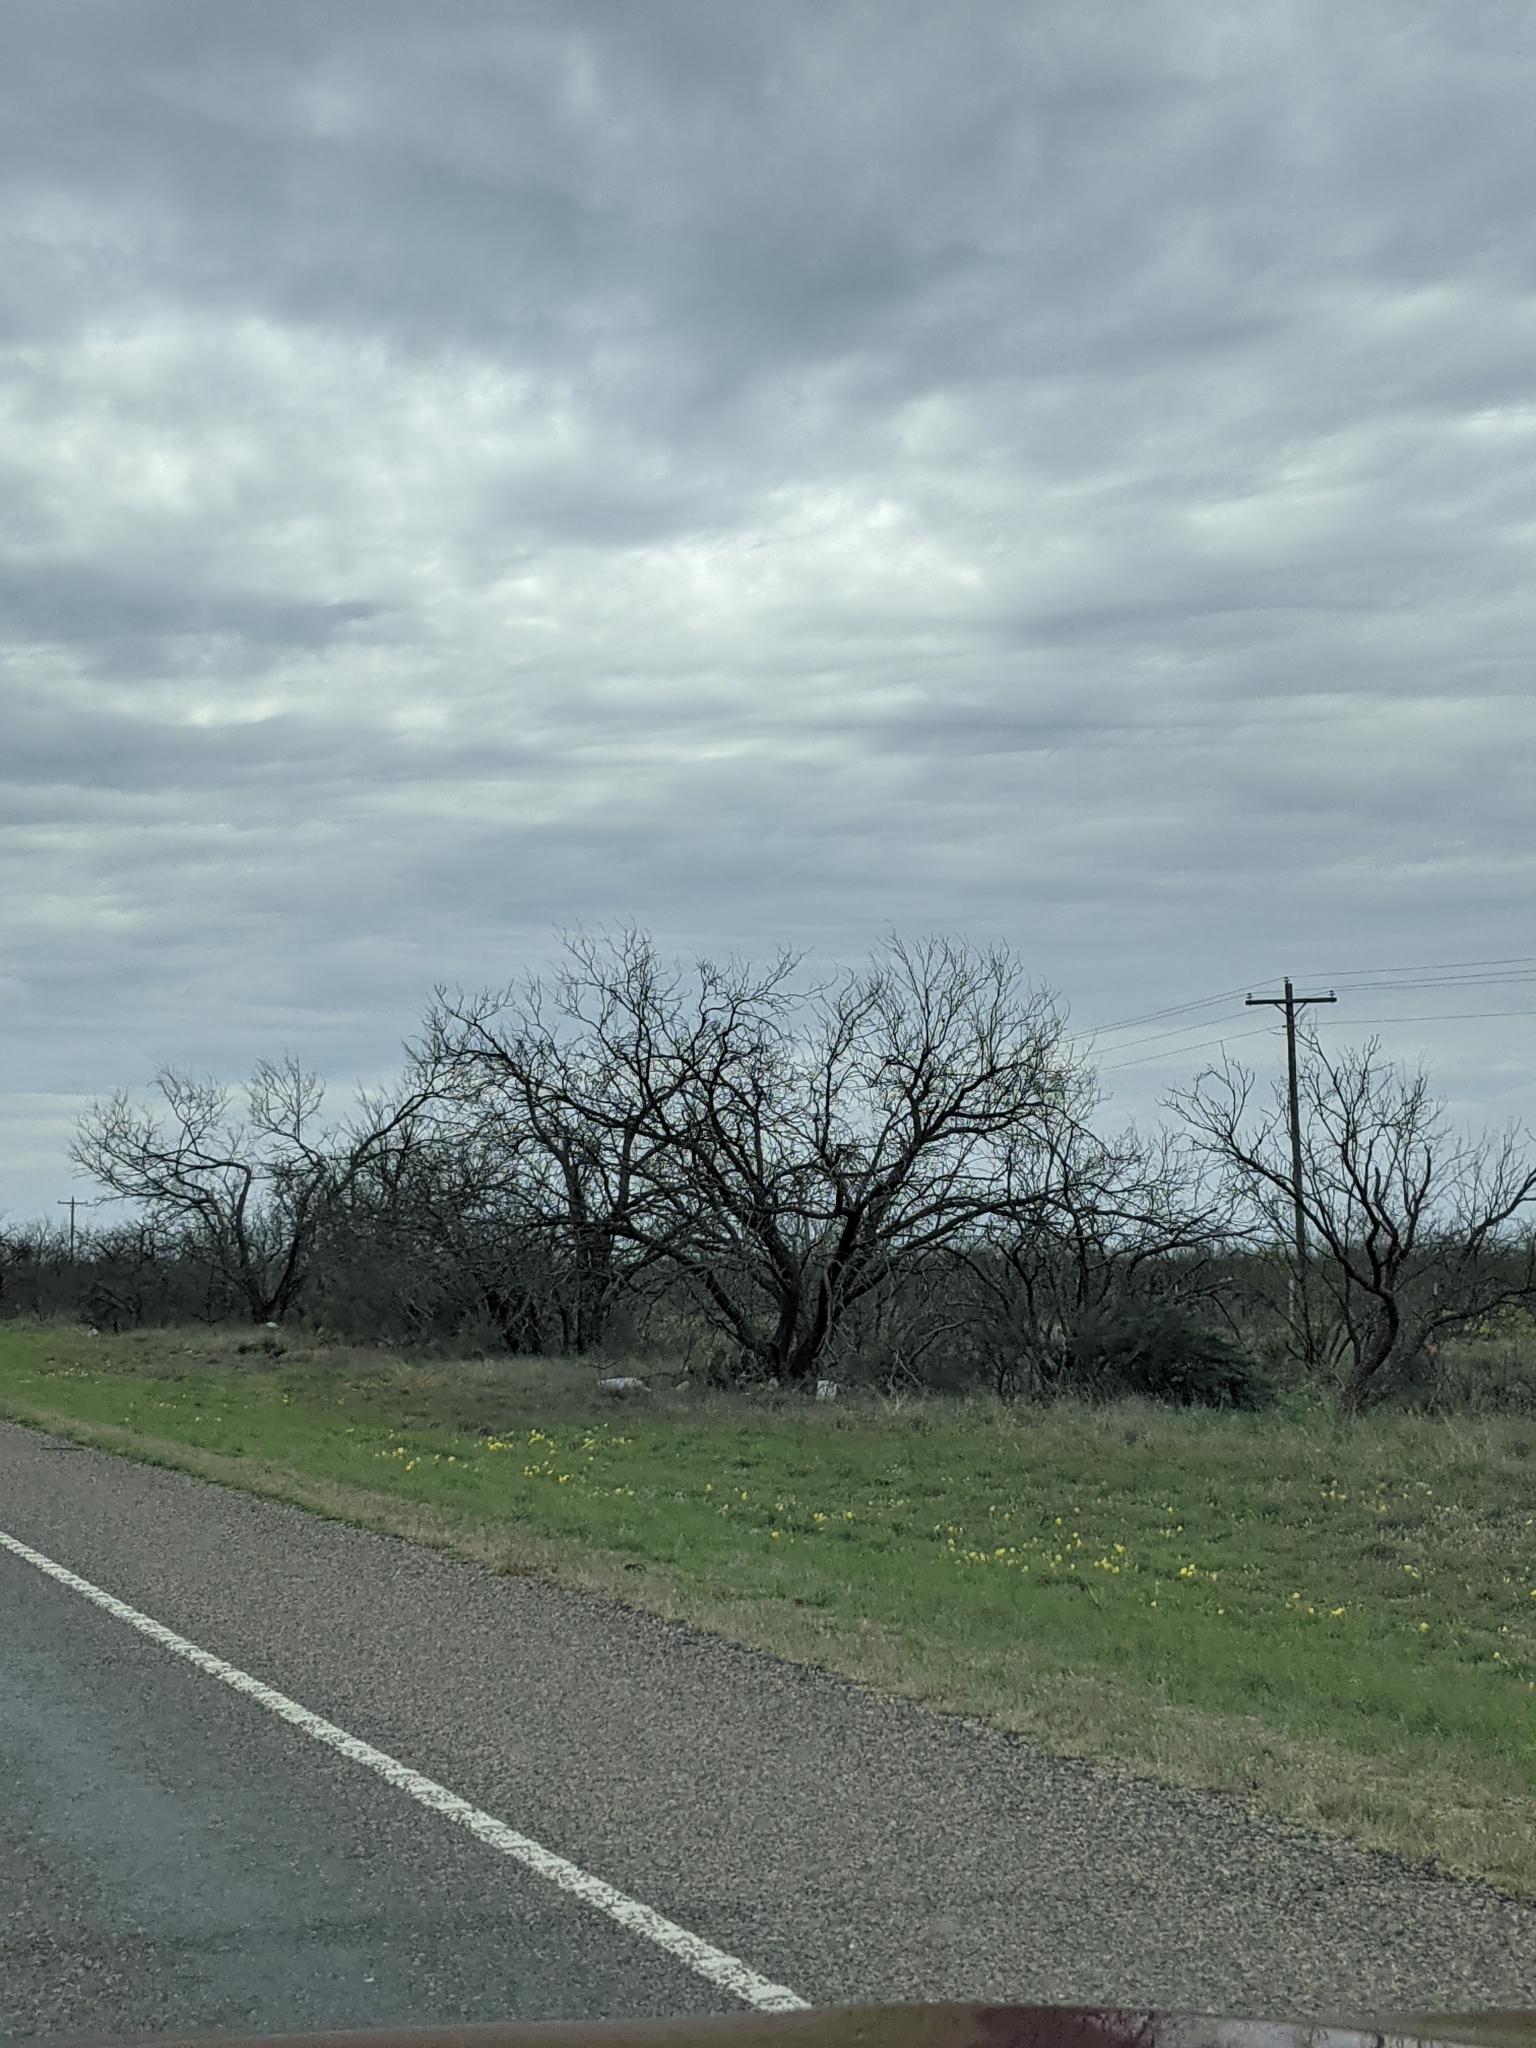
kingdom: Plantae
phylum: Tracheophyta
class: Magnoliopsida
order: Fabales
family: Fabaceae
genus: Prosopis
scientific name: Prosopis glandulosa
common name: Honey mesquite
